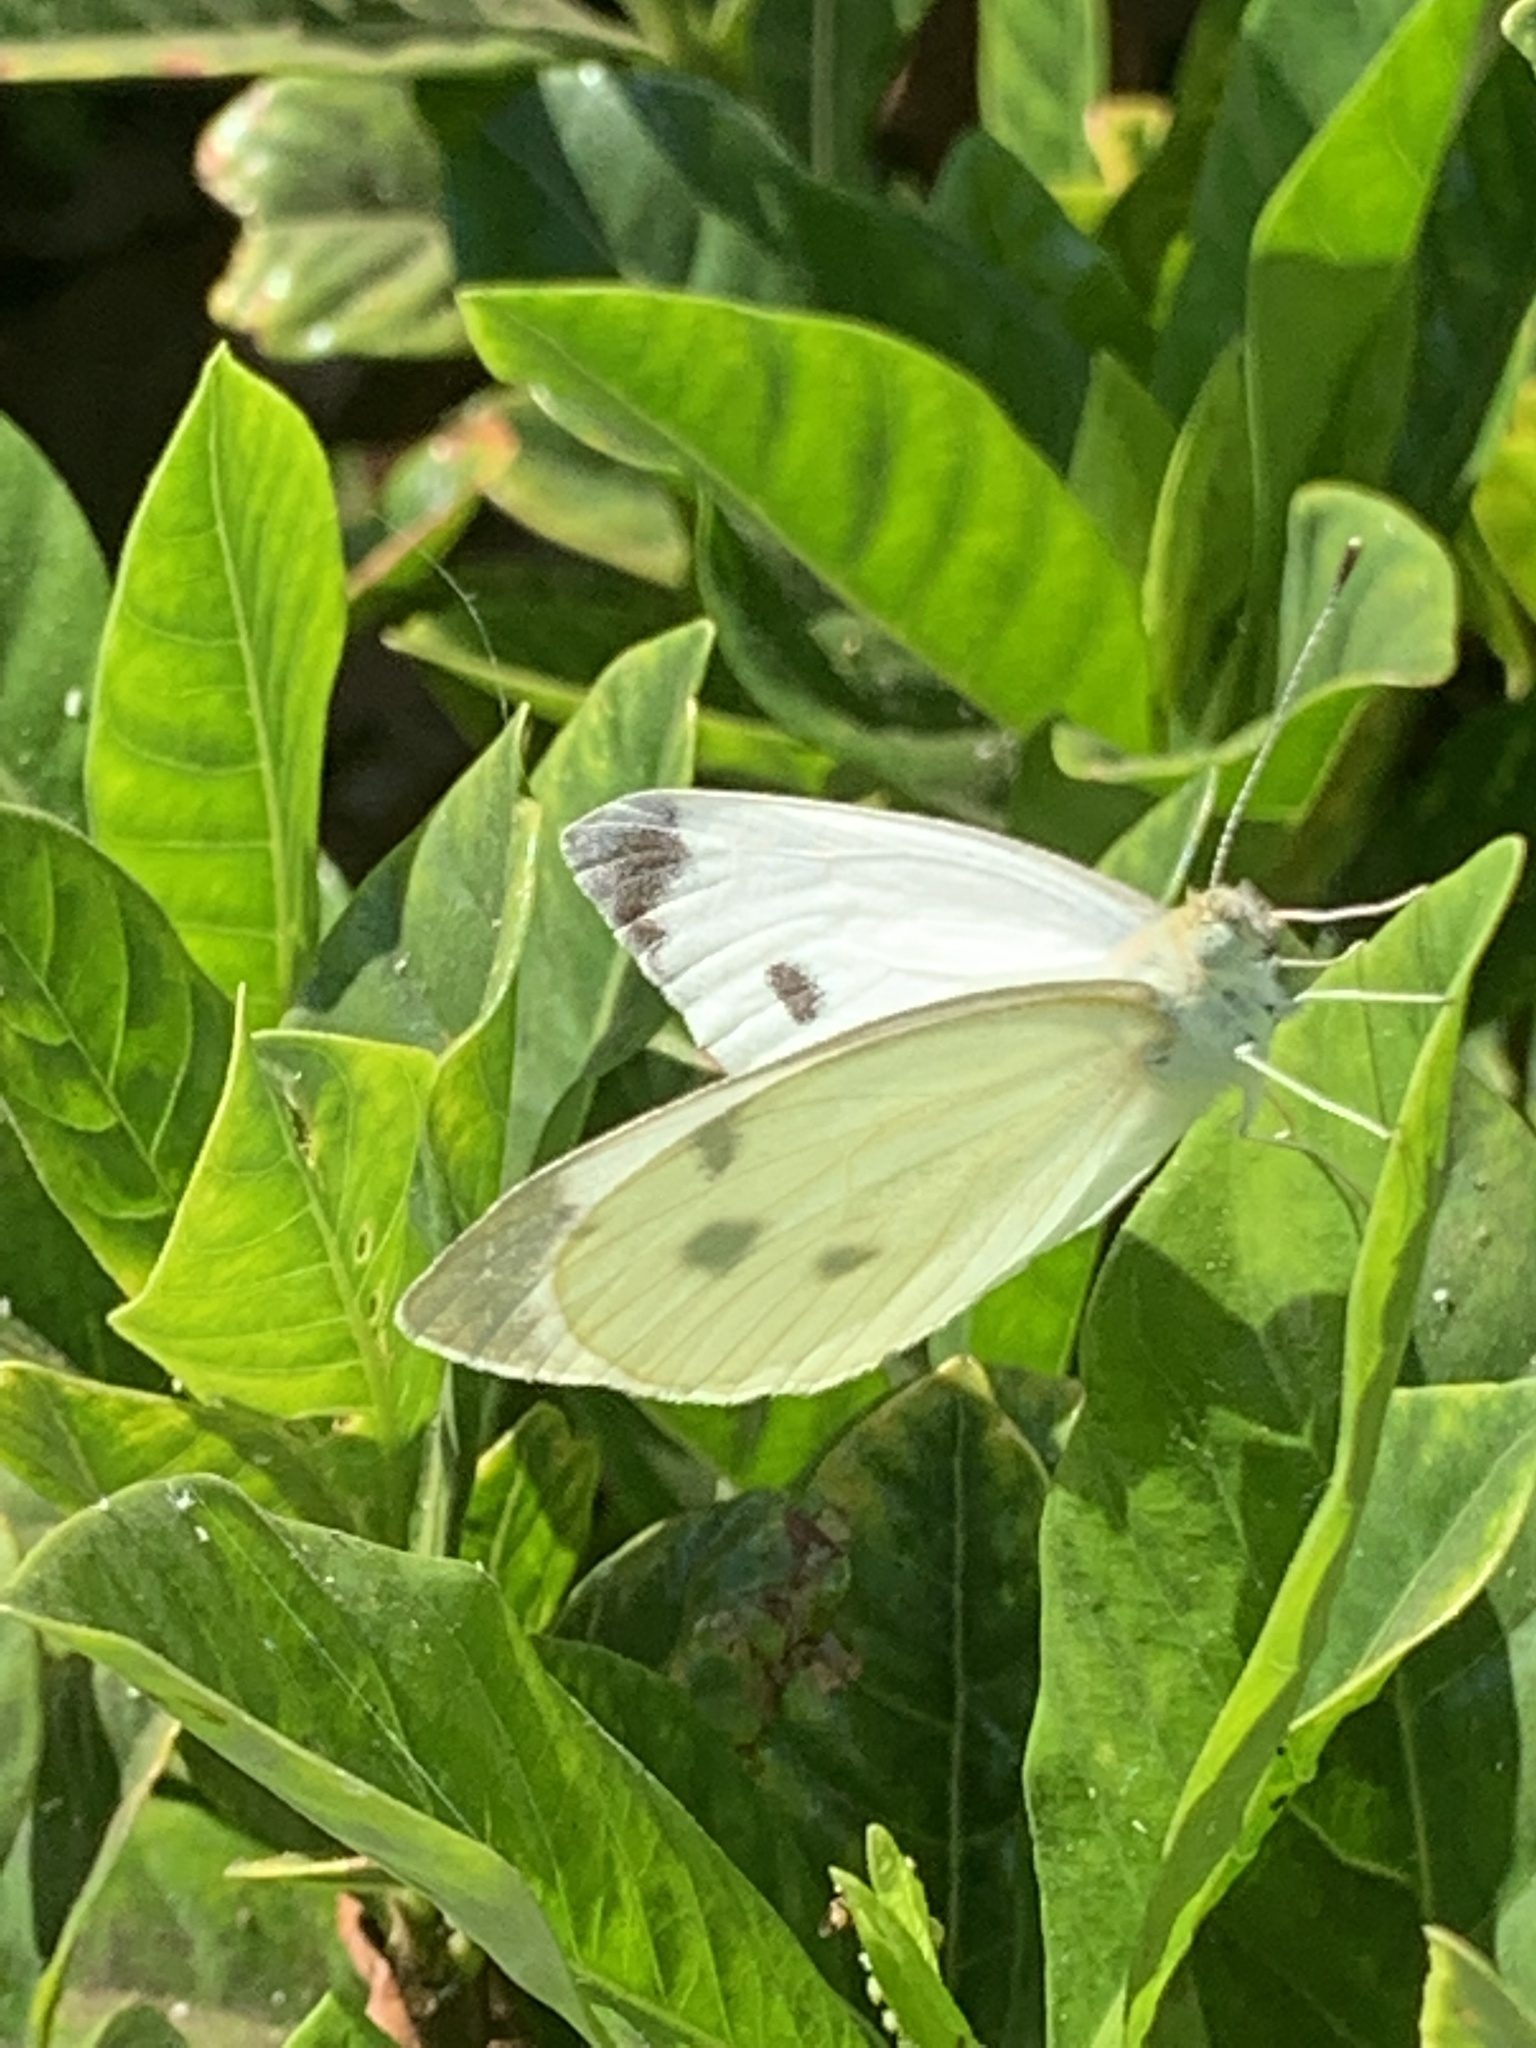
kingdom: Animalia
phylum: Arthropoda
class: Insecta
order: Lepidoptera
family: Pieridae
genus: Pieris
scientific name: Pieris rapae
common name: Small white
